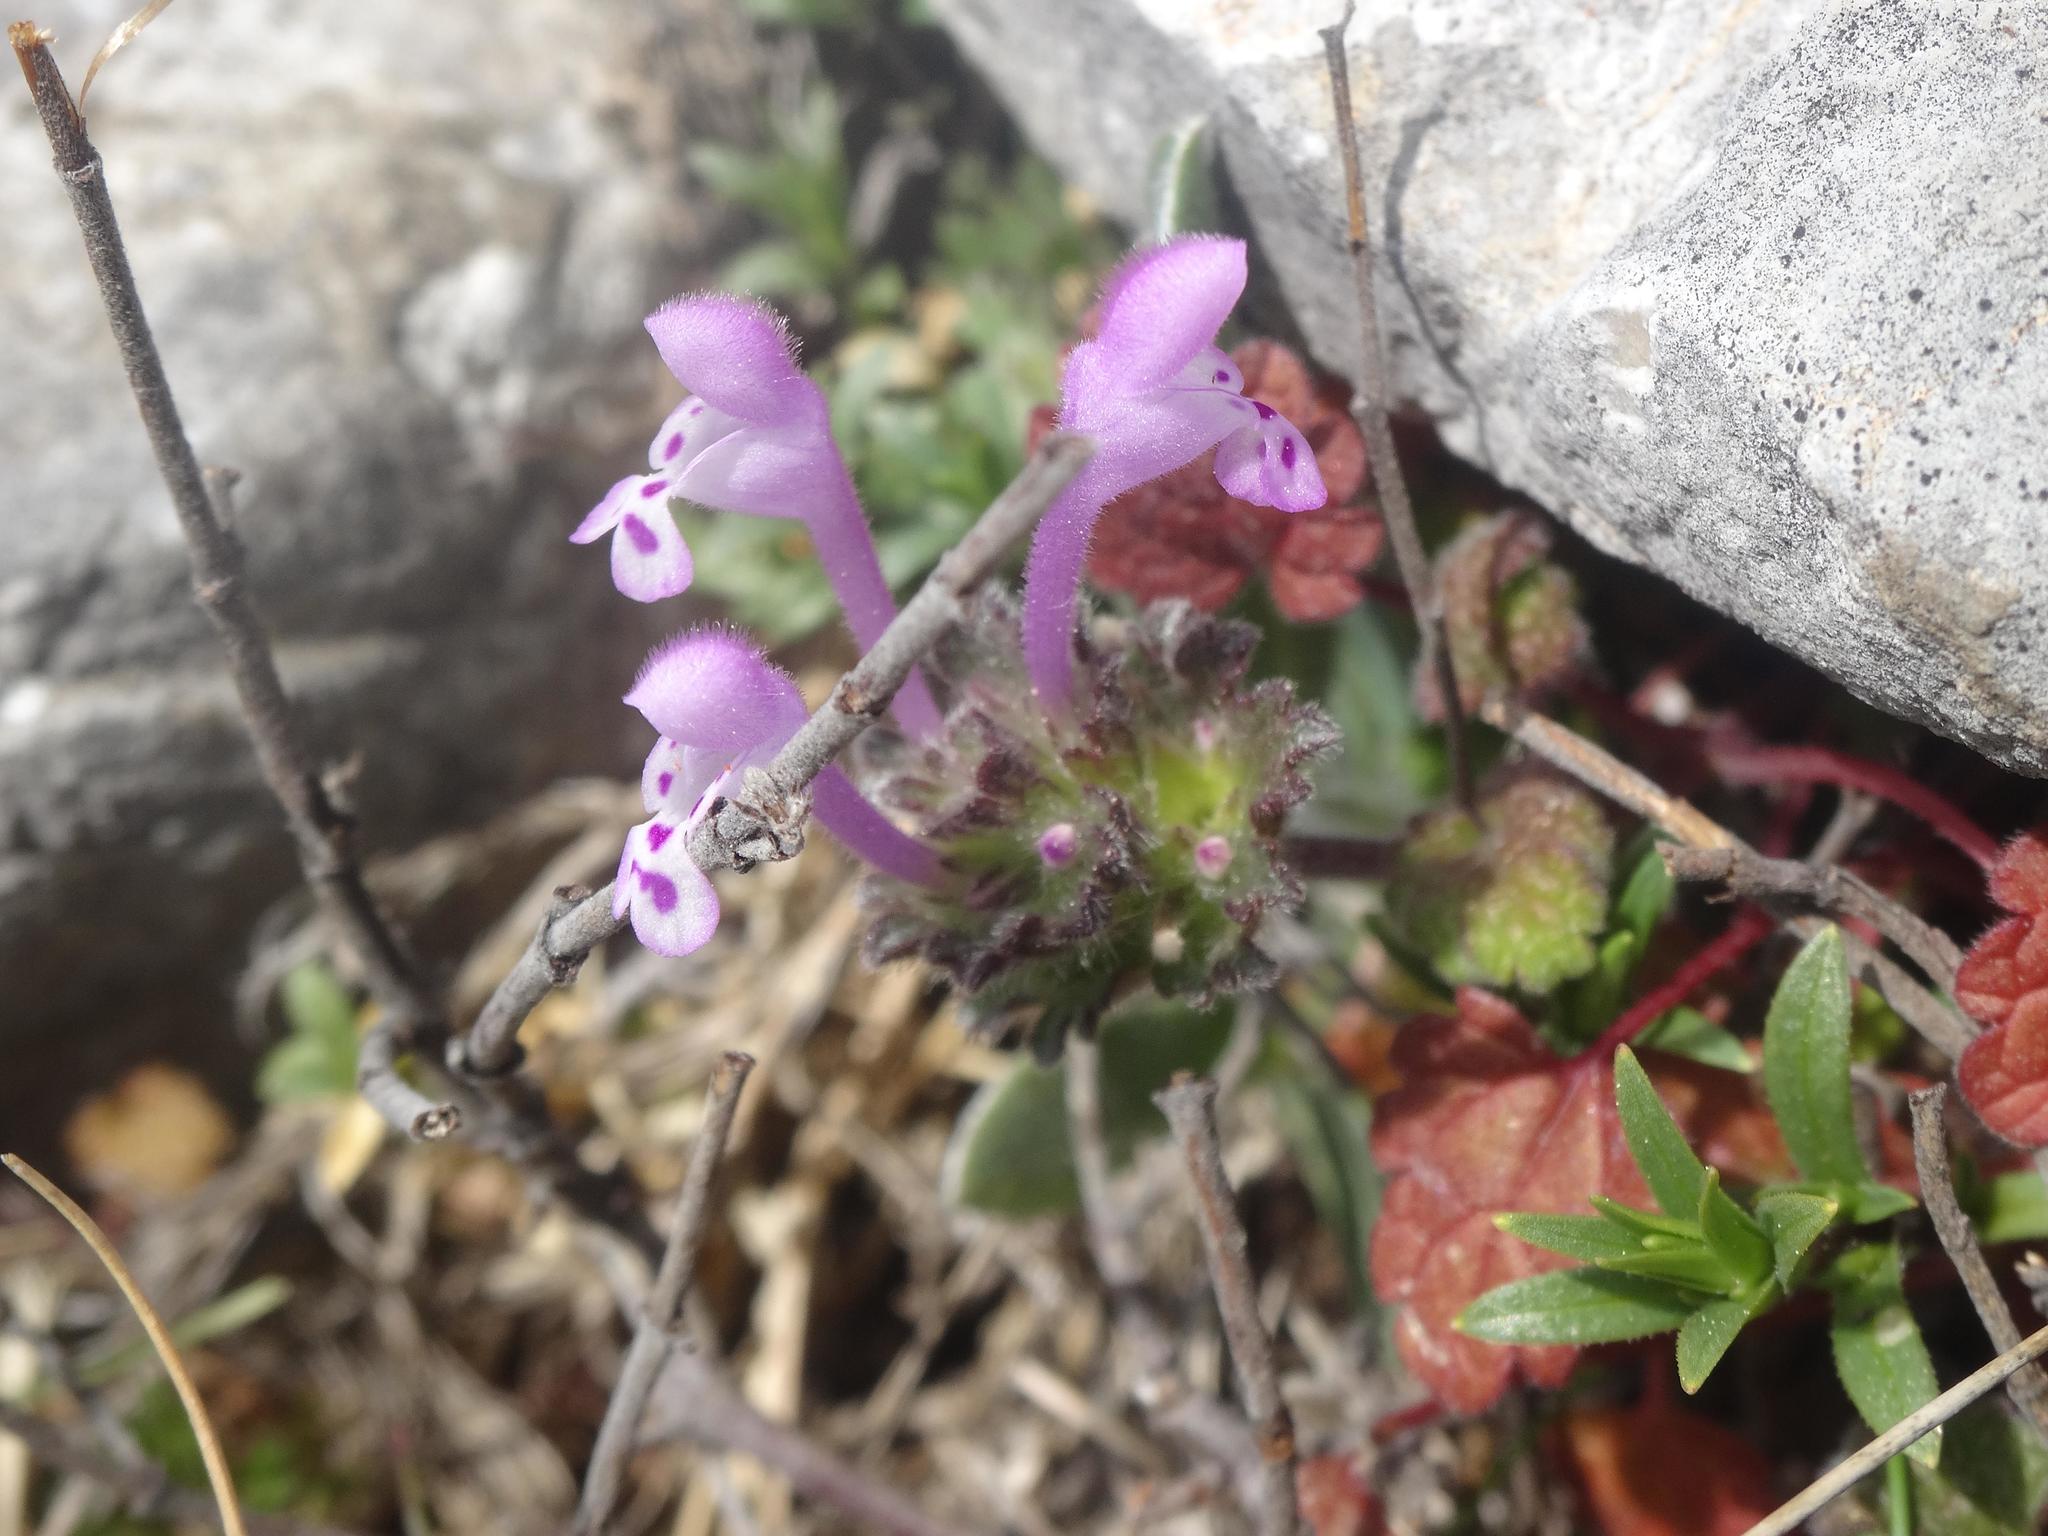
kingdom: Plantae
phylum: Tracheophyta
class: Magnoliopsida
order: Lamiales
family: Lamiaceae
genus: Lamium
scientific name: Lamium amplexicaule
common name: Henbit dead-nettle
